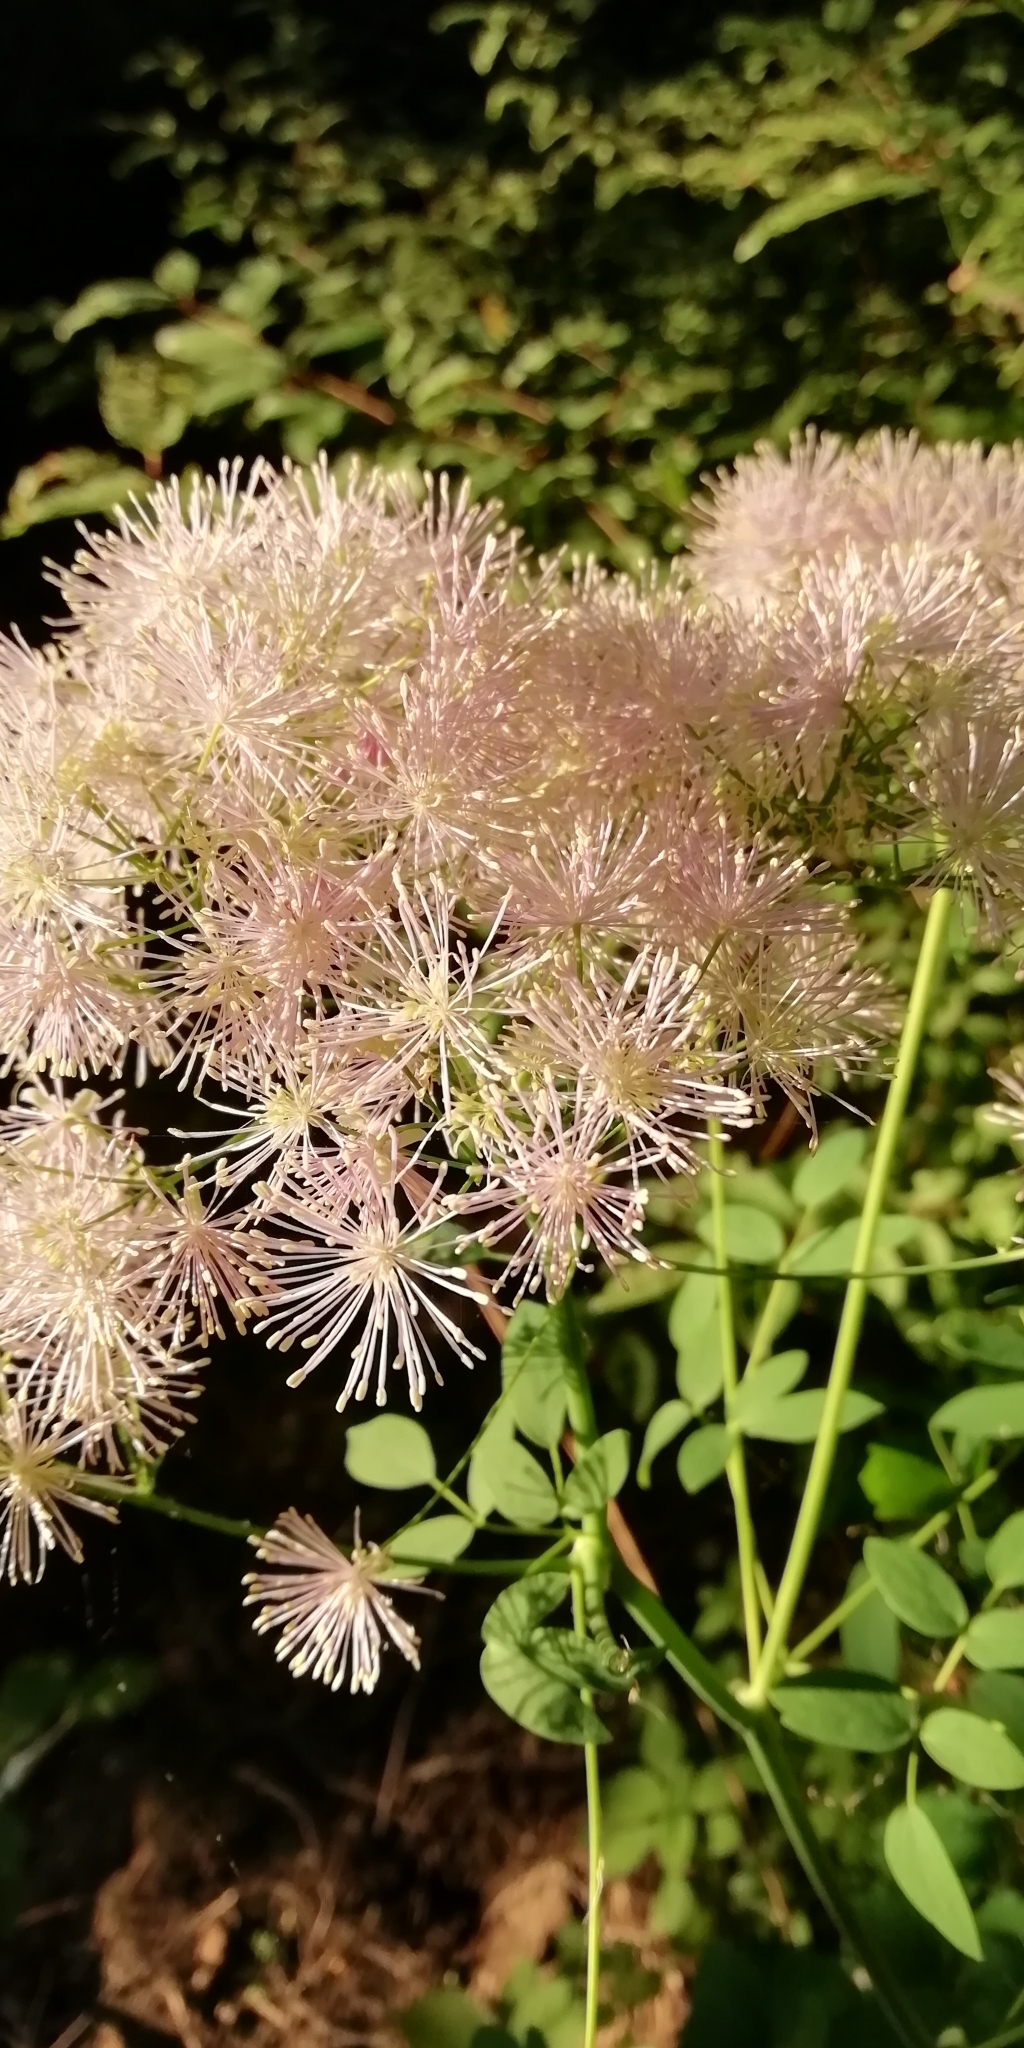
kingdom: Plantae
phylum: Tracheophyta
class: Magnoliopsida
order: Ranunculales
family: Ranunculaceae
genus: Thalictrum
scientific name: Thalictrum aquilegiifolium
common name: French meadow-rue
